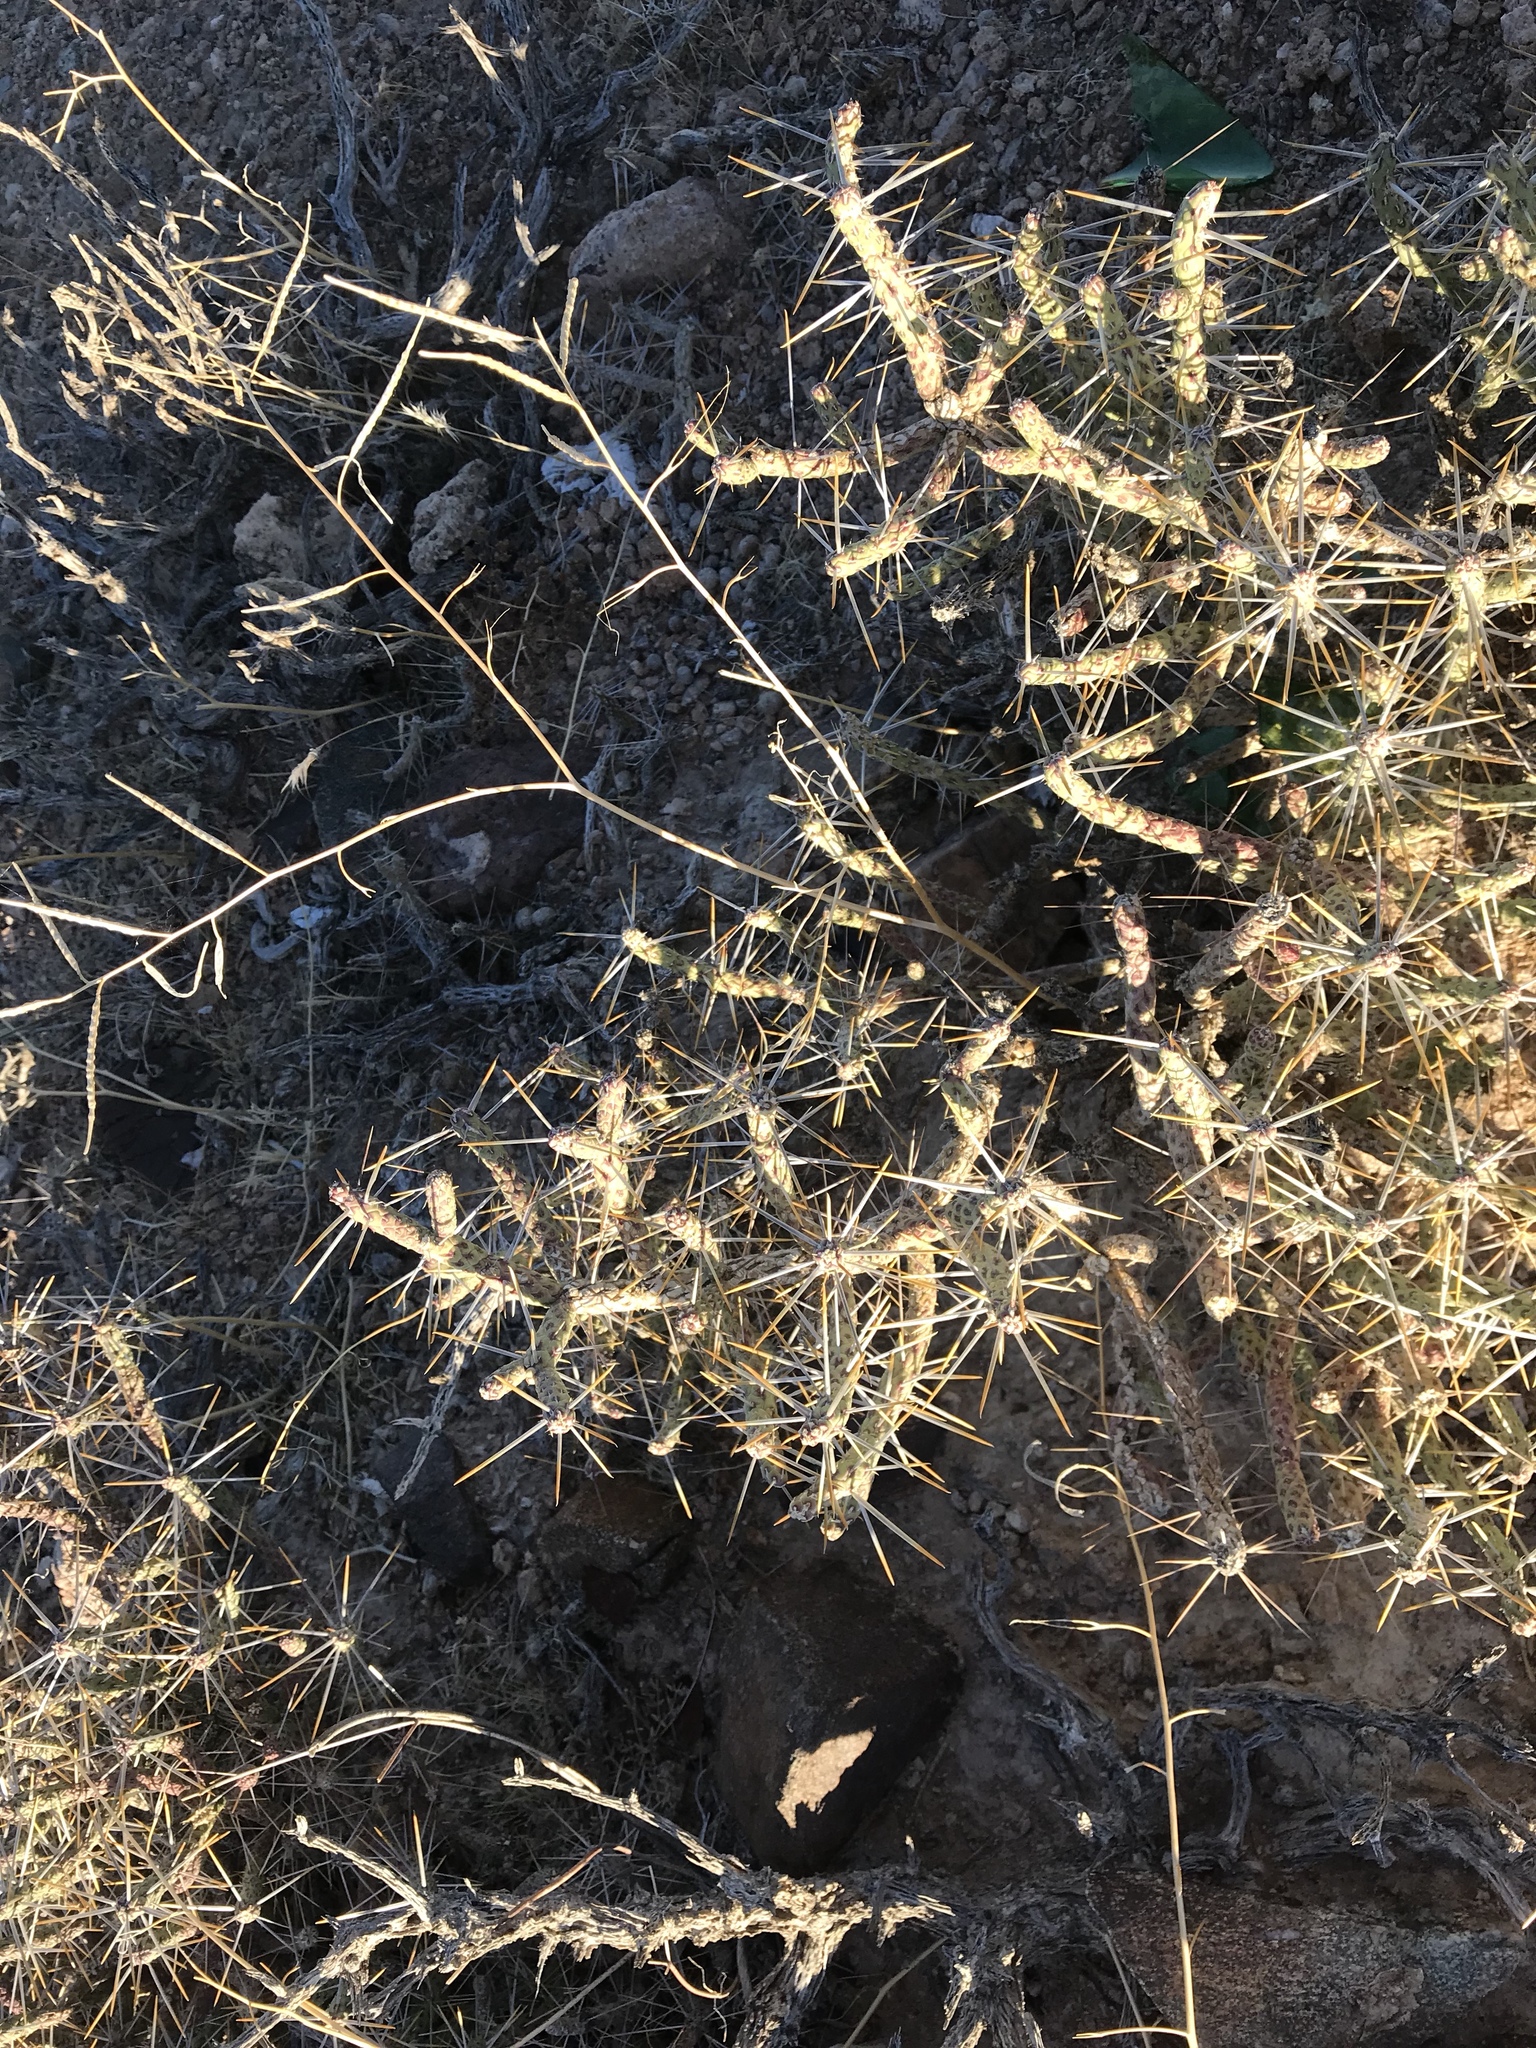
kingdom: Plantae
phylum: Tracheophyta
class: Magnoliopsida
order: Caryophyllales
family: Cactaceae
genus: Cylindropuntia
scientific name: Cylindropuntia ramosissima
